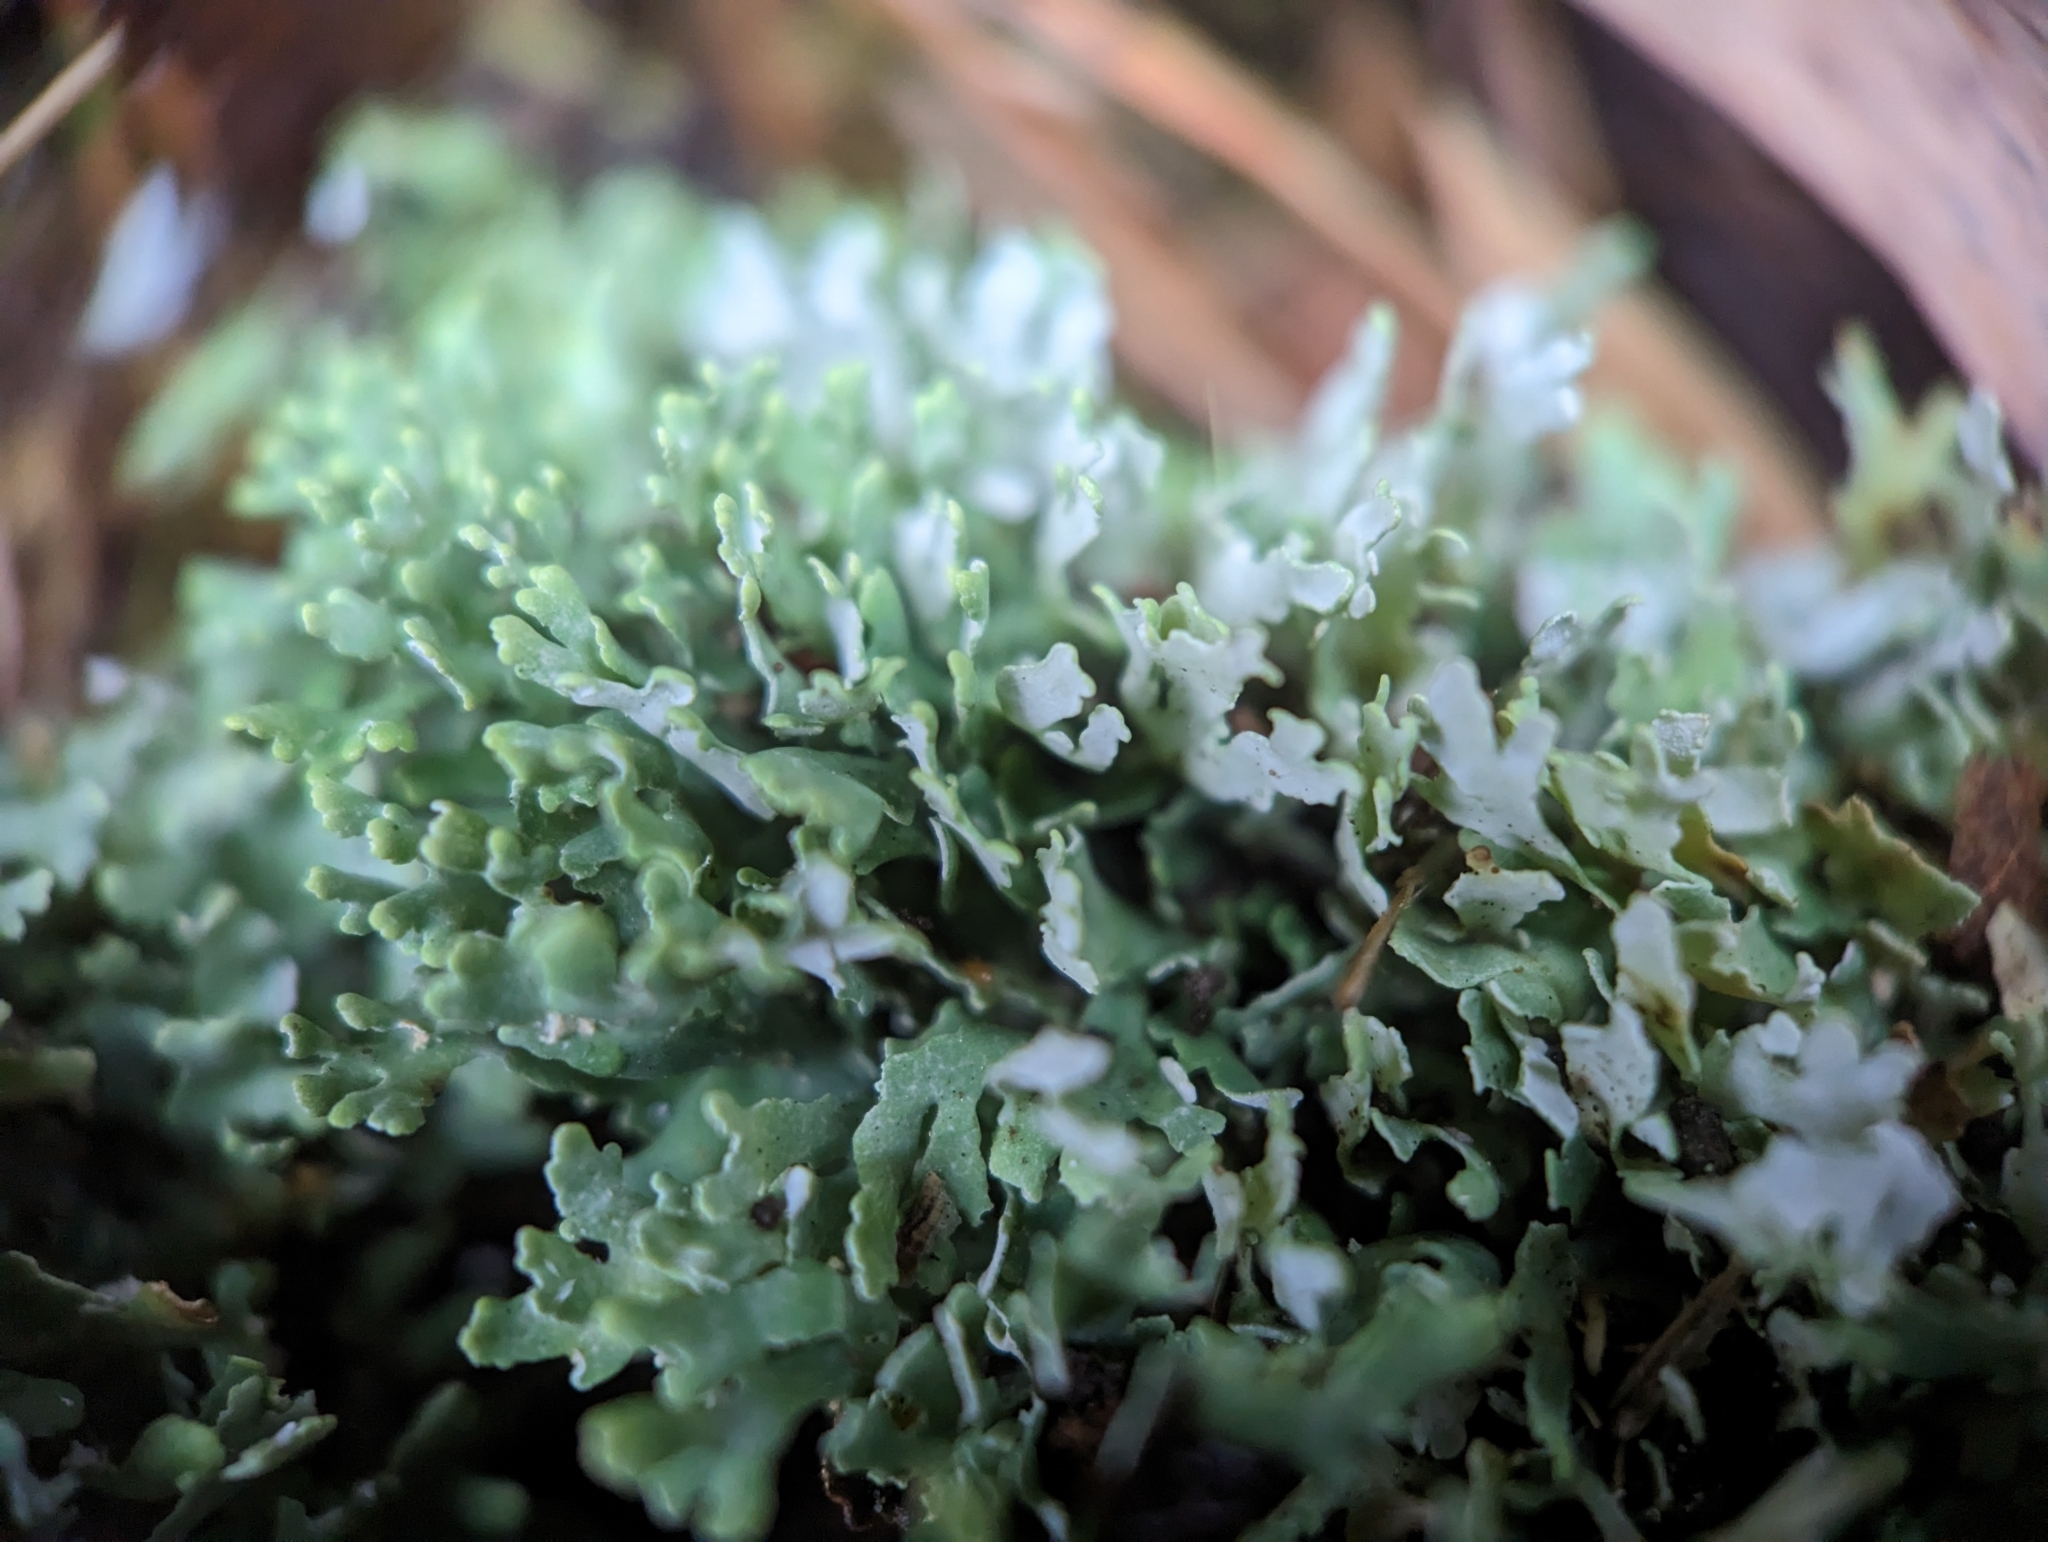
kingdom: Fungi
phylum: Ascomycota
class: Lecanoromycetes
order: Lecanorales
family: Cladoniaceae
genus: Cladonia
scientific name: Cladonia apodocarpa
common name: Stalkless cladonia
